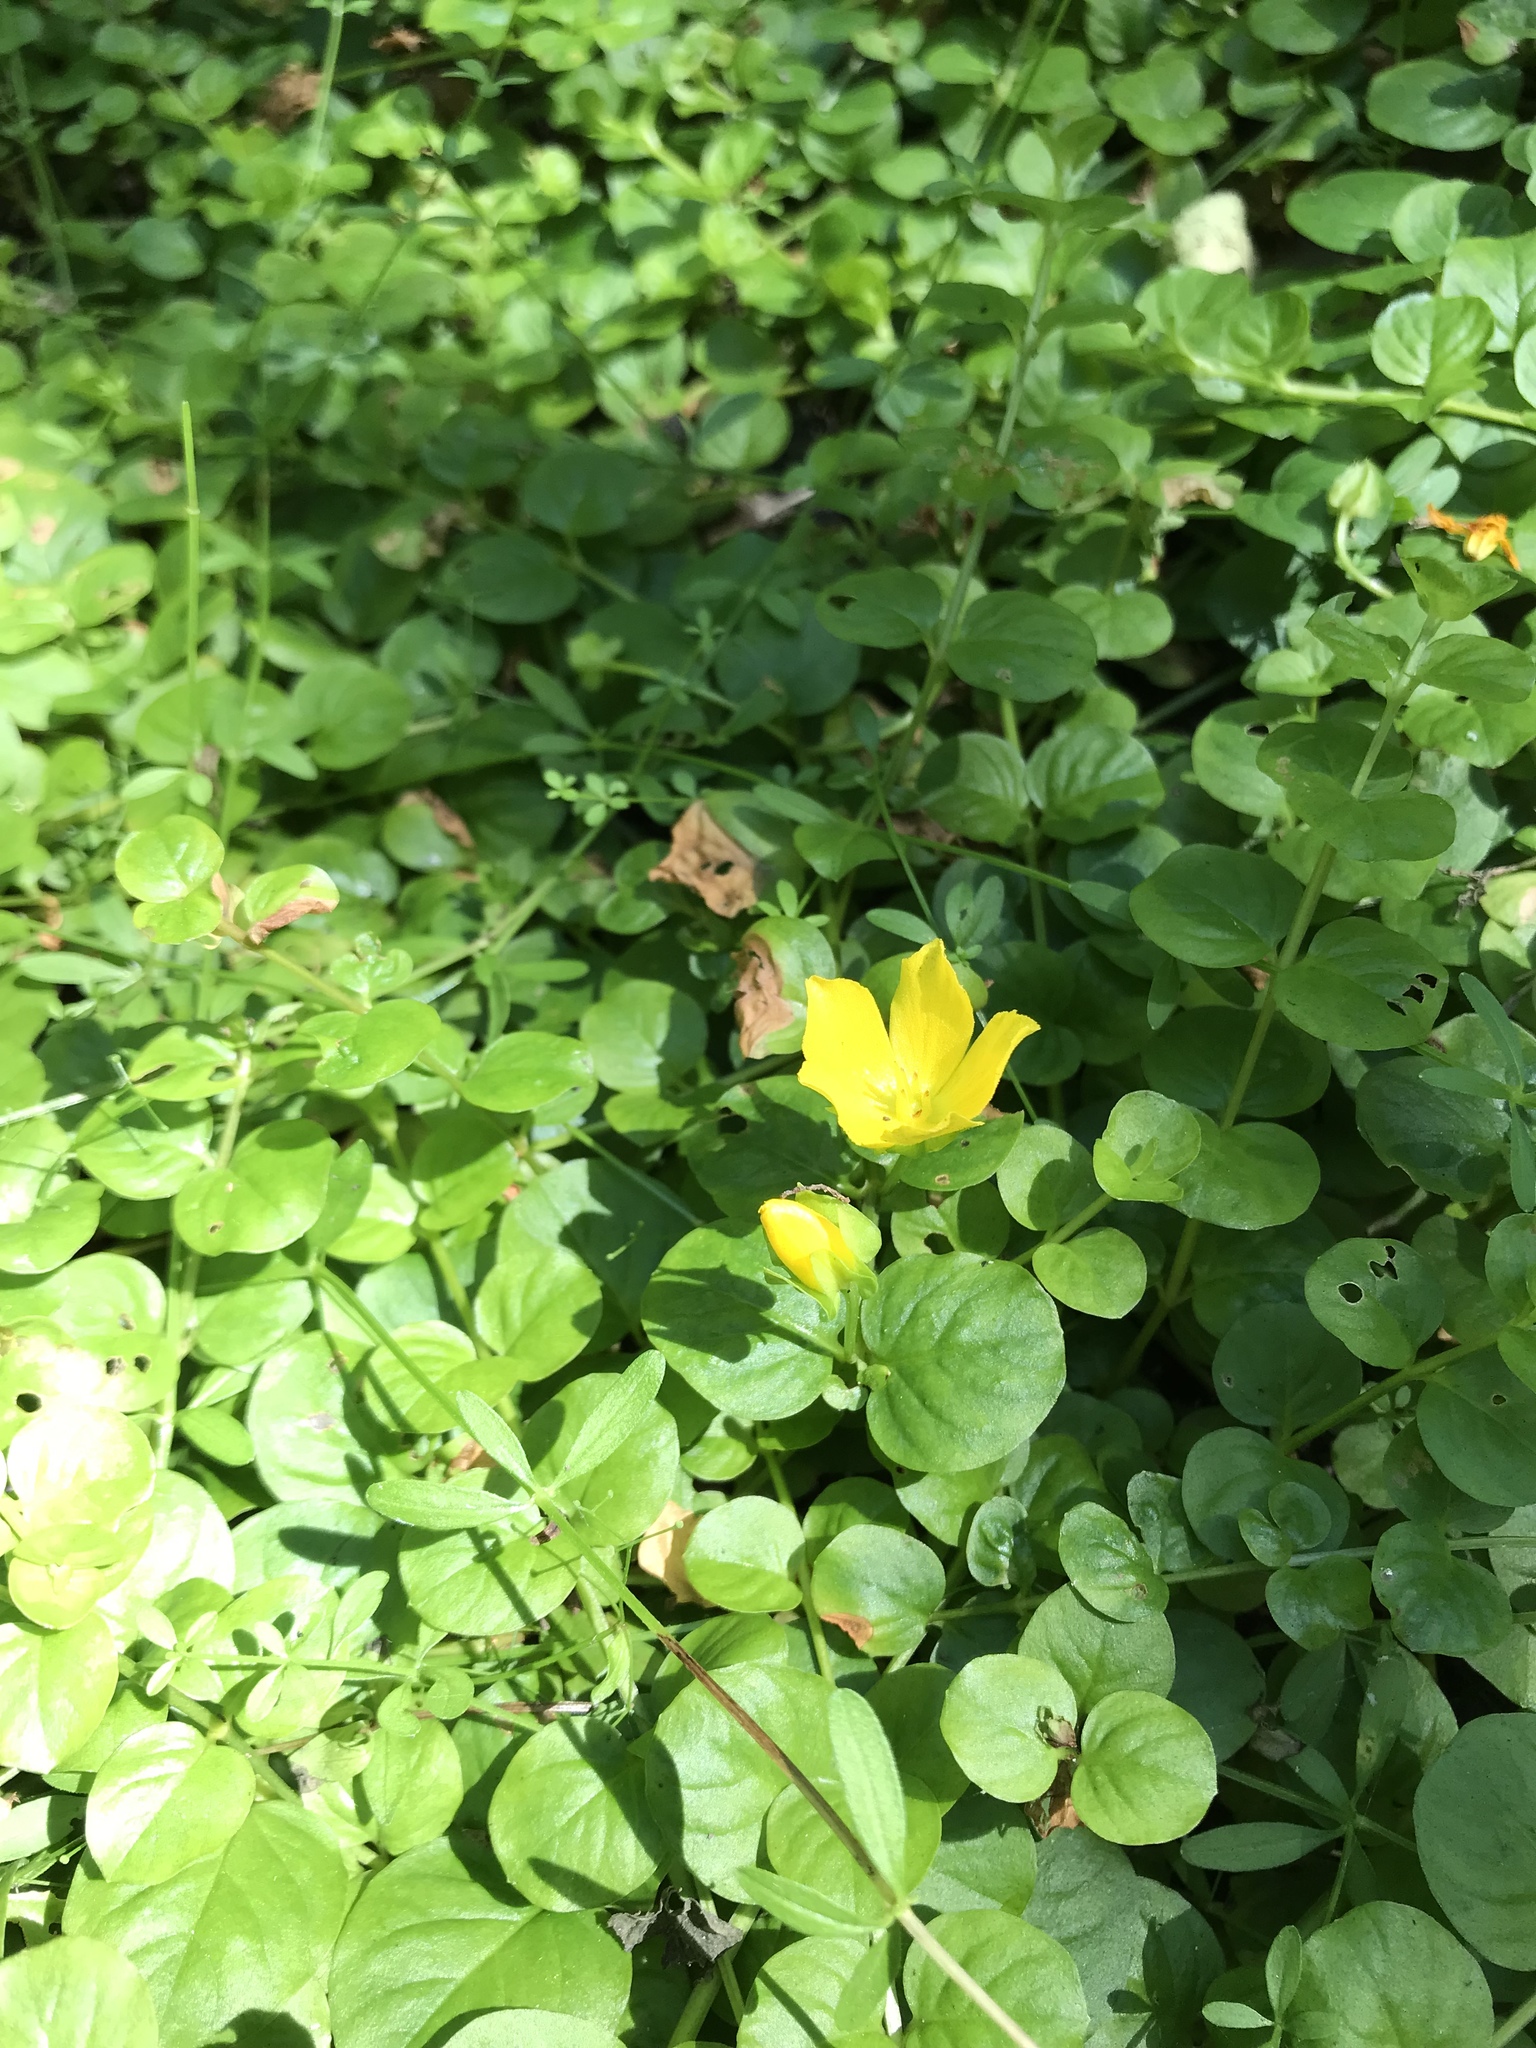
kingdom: Plantae
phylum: Tracheophyta
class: Magnoliopsida
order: Ericales
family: Primulaceae
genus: Lysimachia
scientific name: Lysimachia nummularia
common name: Moneywort
